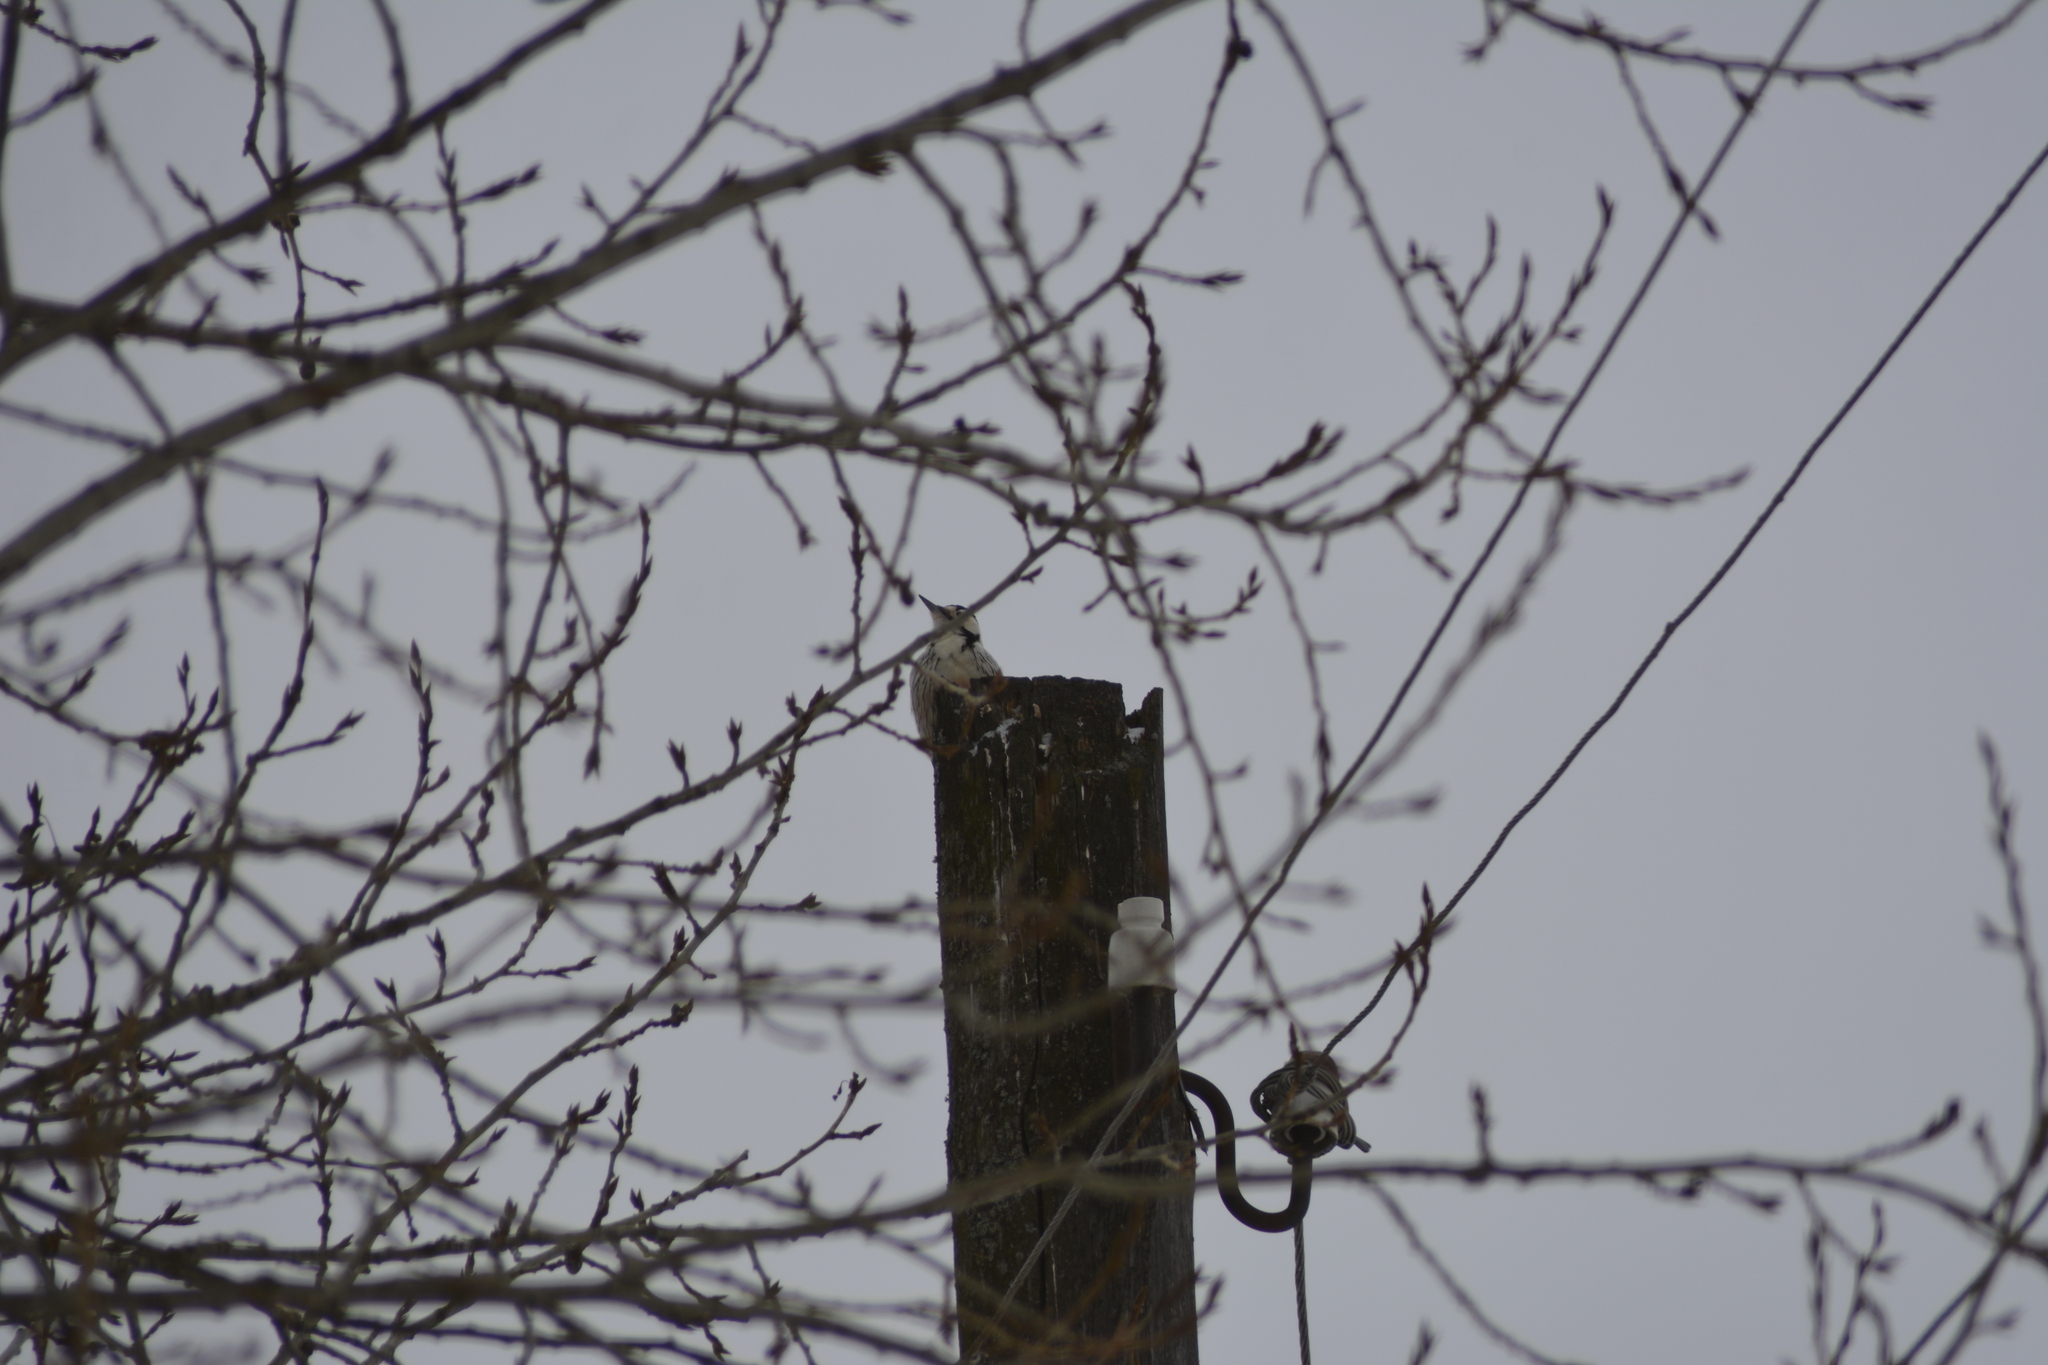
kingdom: Animalia
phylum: Chordata
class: Aves
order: Piciformes
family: Picidae
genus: Dendrocopos
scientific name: Dendrocopos leucotos
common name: White-backed woodpecker
